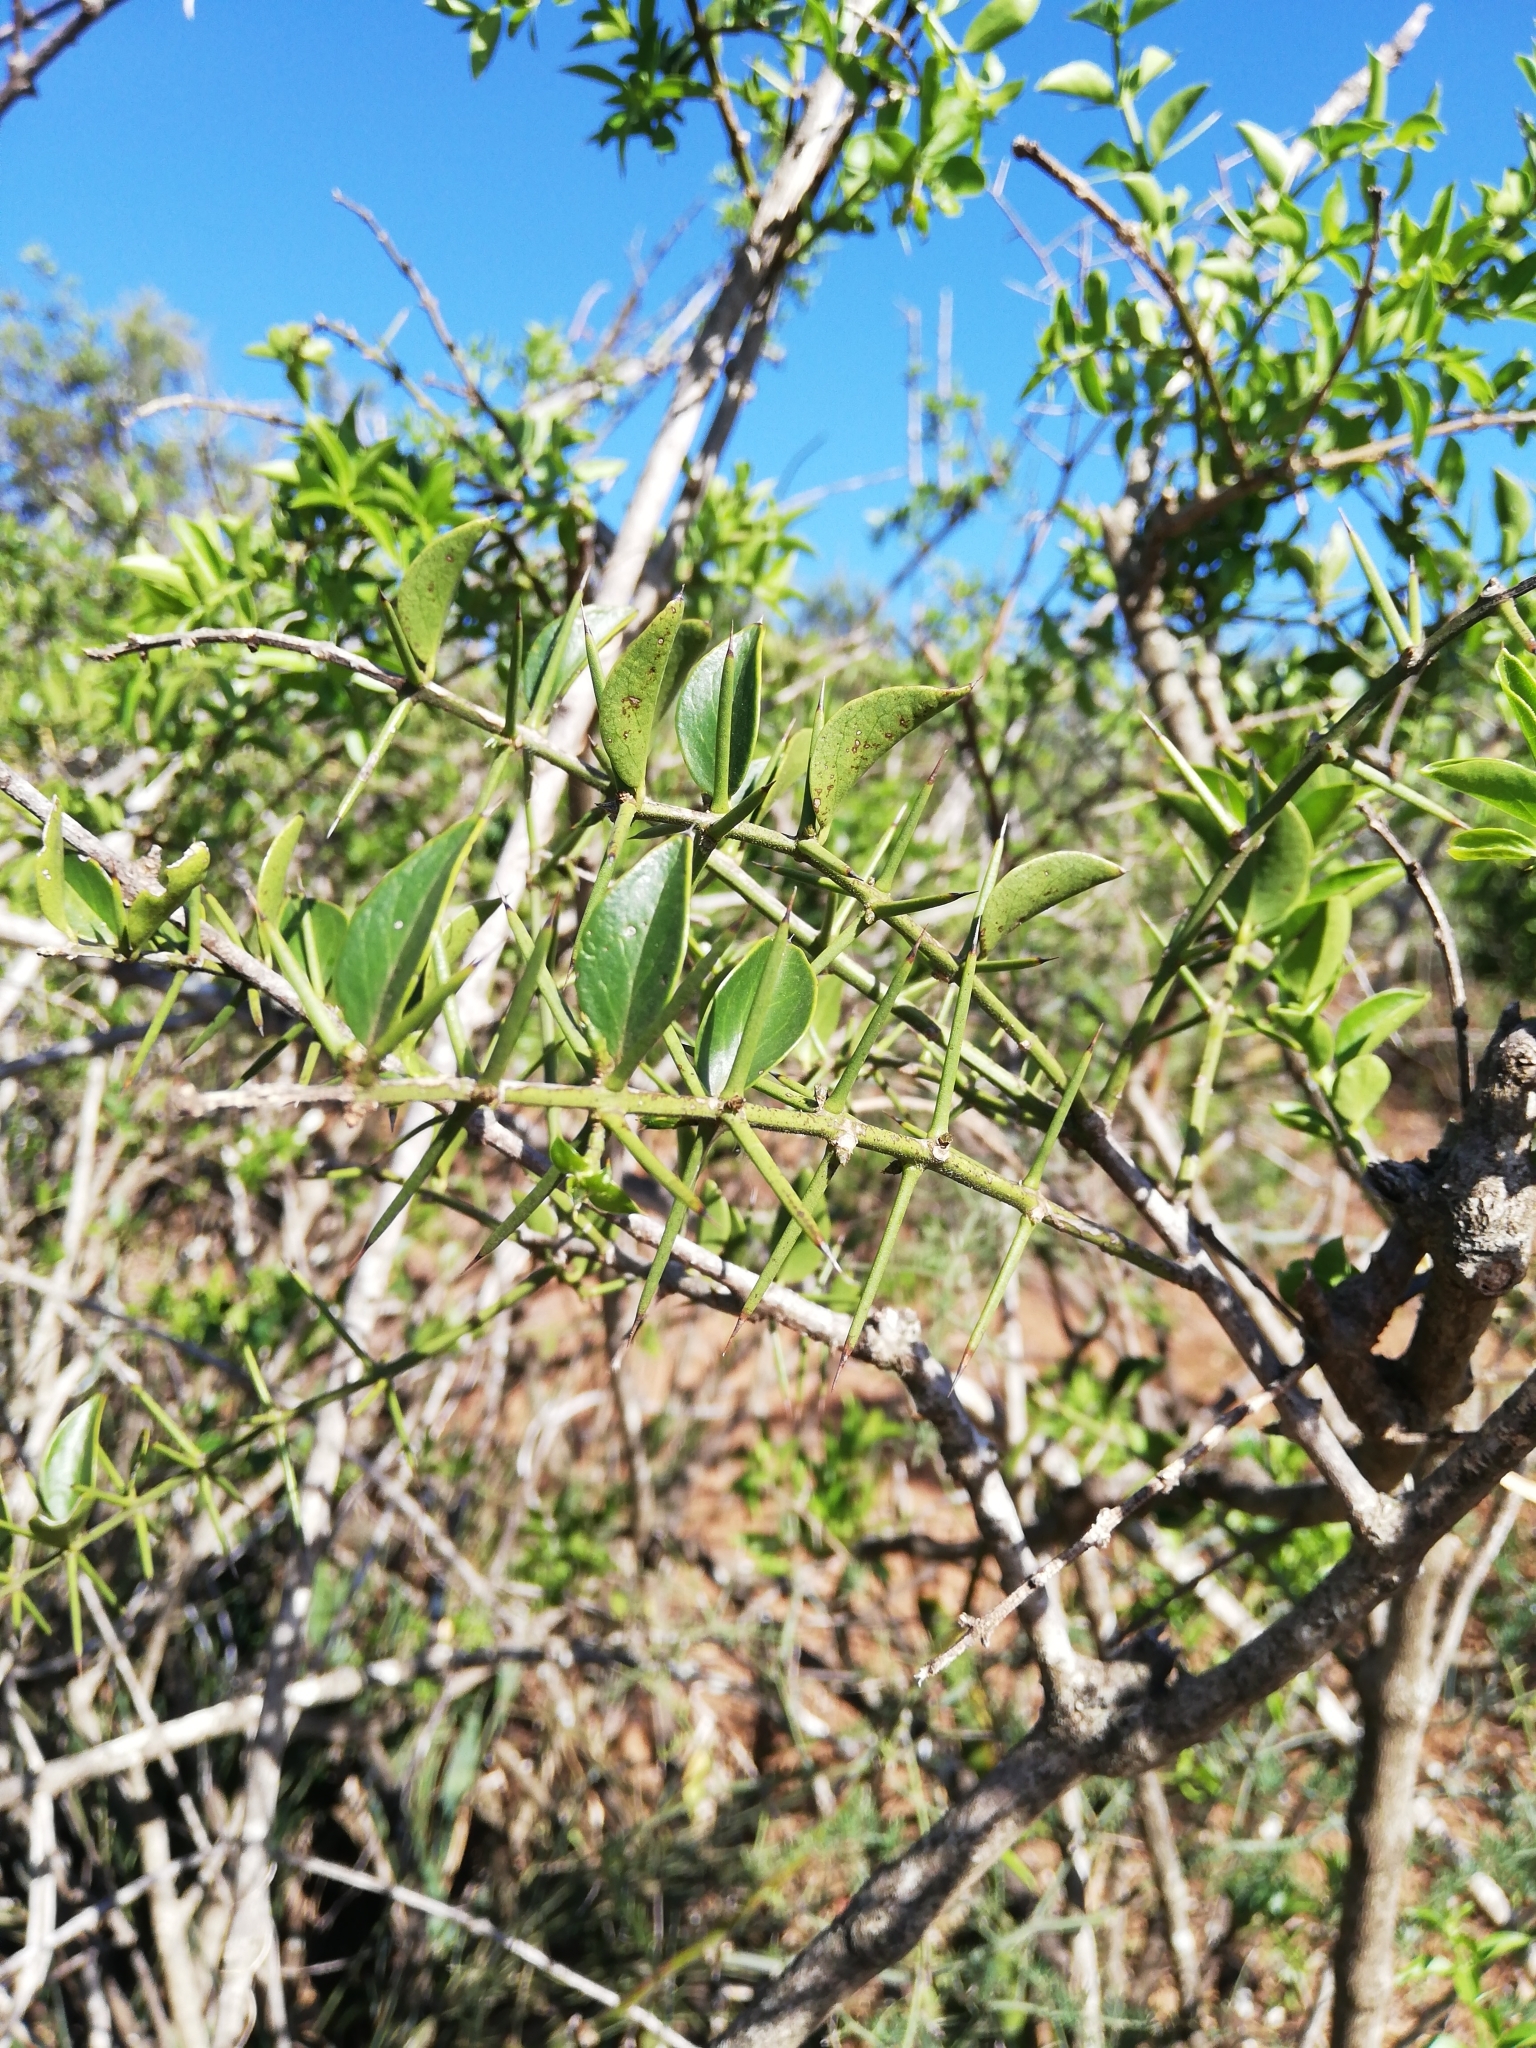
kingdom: Plantae
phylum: Tracheophyta
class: Magnoliopsida
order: Brassicales
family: Salvadoraceae
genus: Azima
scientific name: Azima tetracantha
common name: Needle bush
